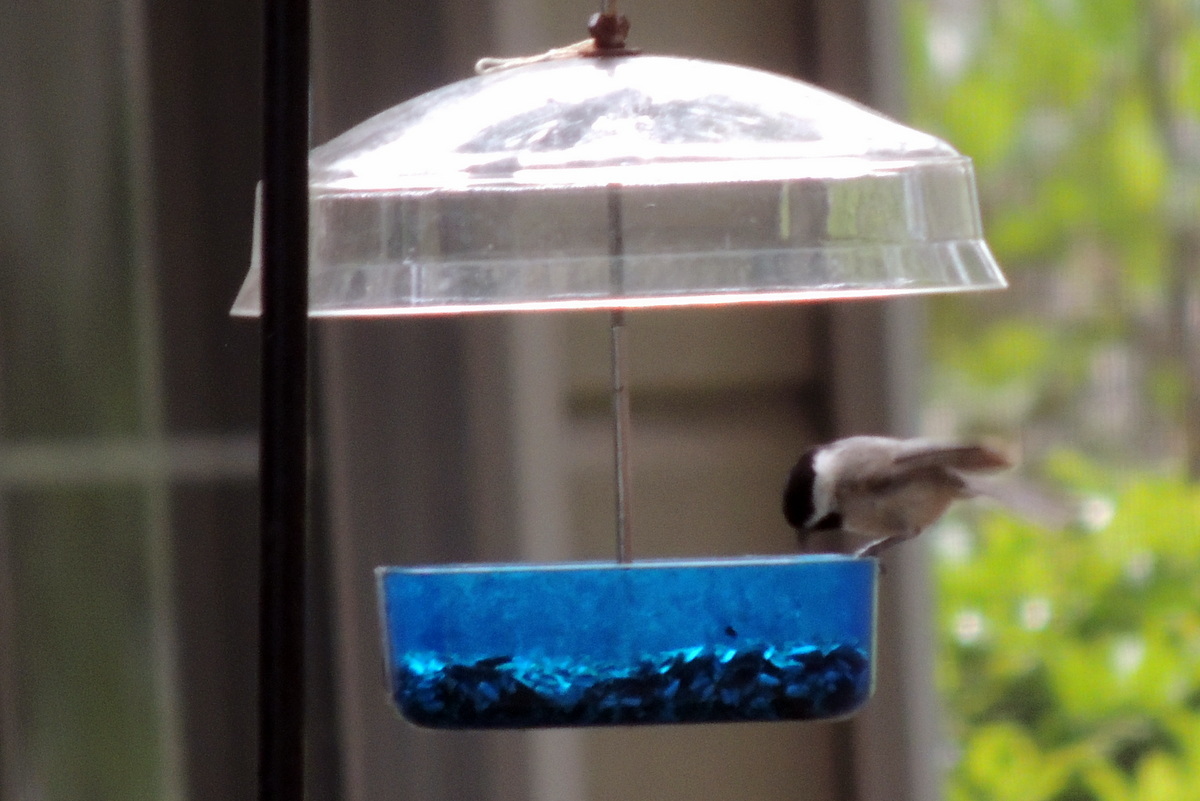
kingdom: Animalia
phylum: Chordata
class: Aves
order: Passeriformes
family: Paridae
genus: Poecile
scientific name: Poecile carolinensis
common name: Carolina chickadee
